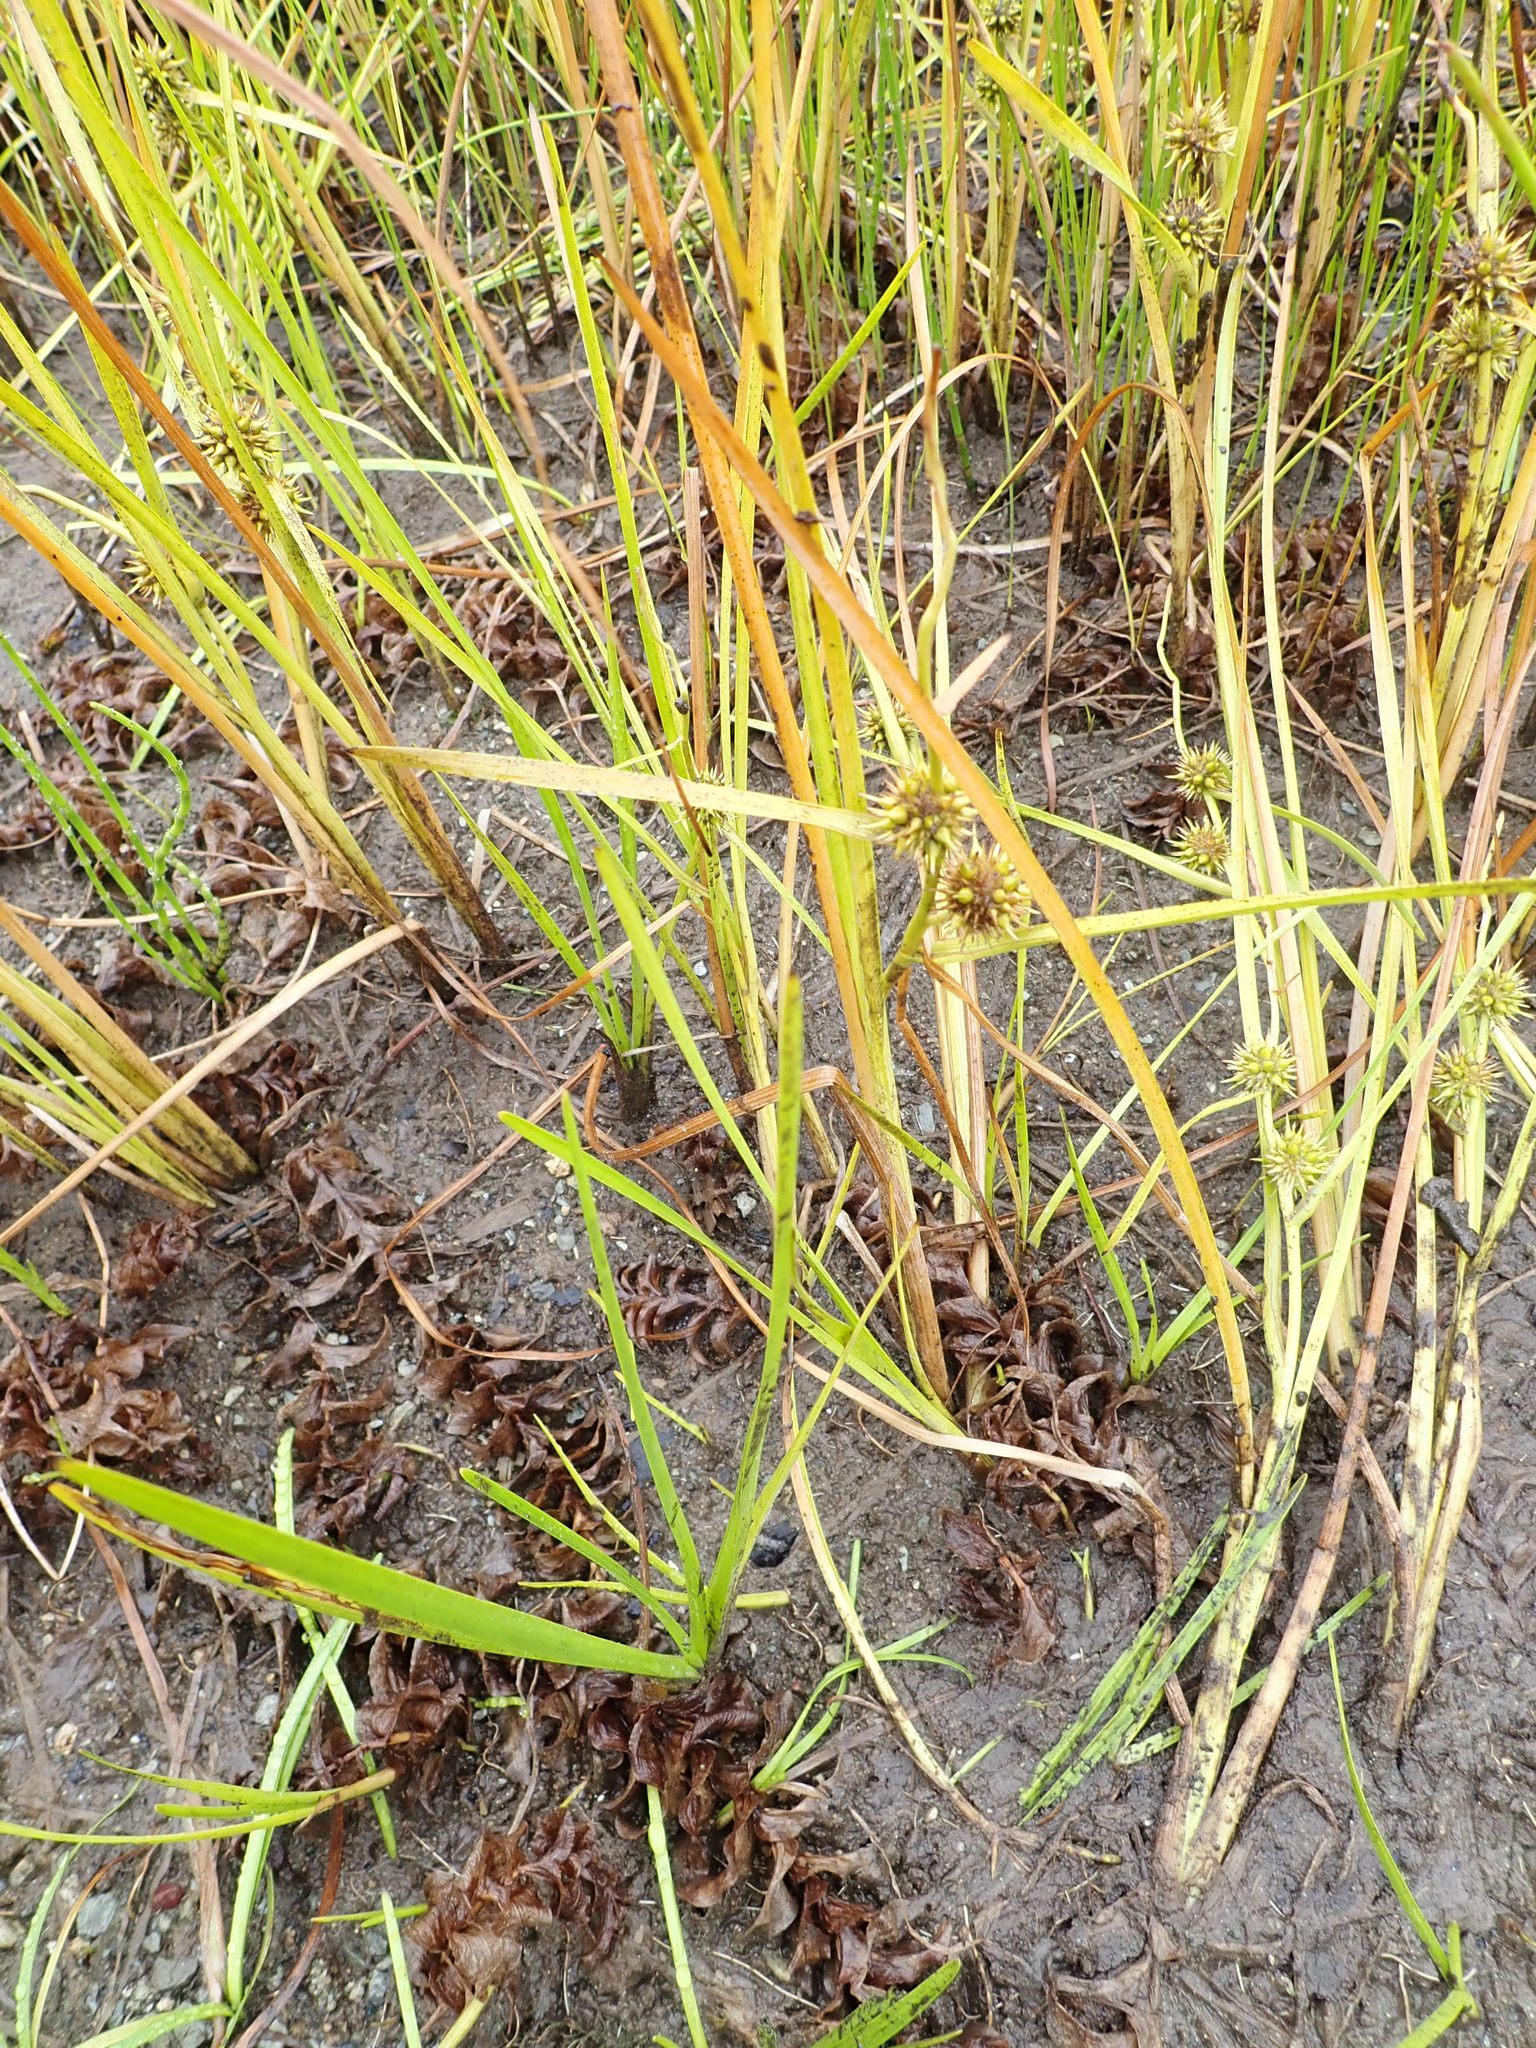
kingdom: Plantae
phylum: Tracheophyta
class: Liliopsida
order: Poales
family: Typhaceae
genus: Sparganium
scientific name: Sparganium emersum
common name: Unbranched bur-reed
